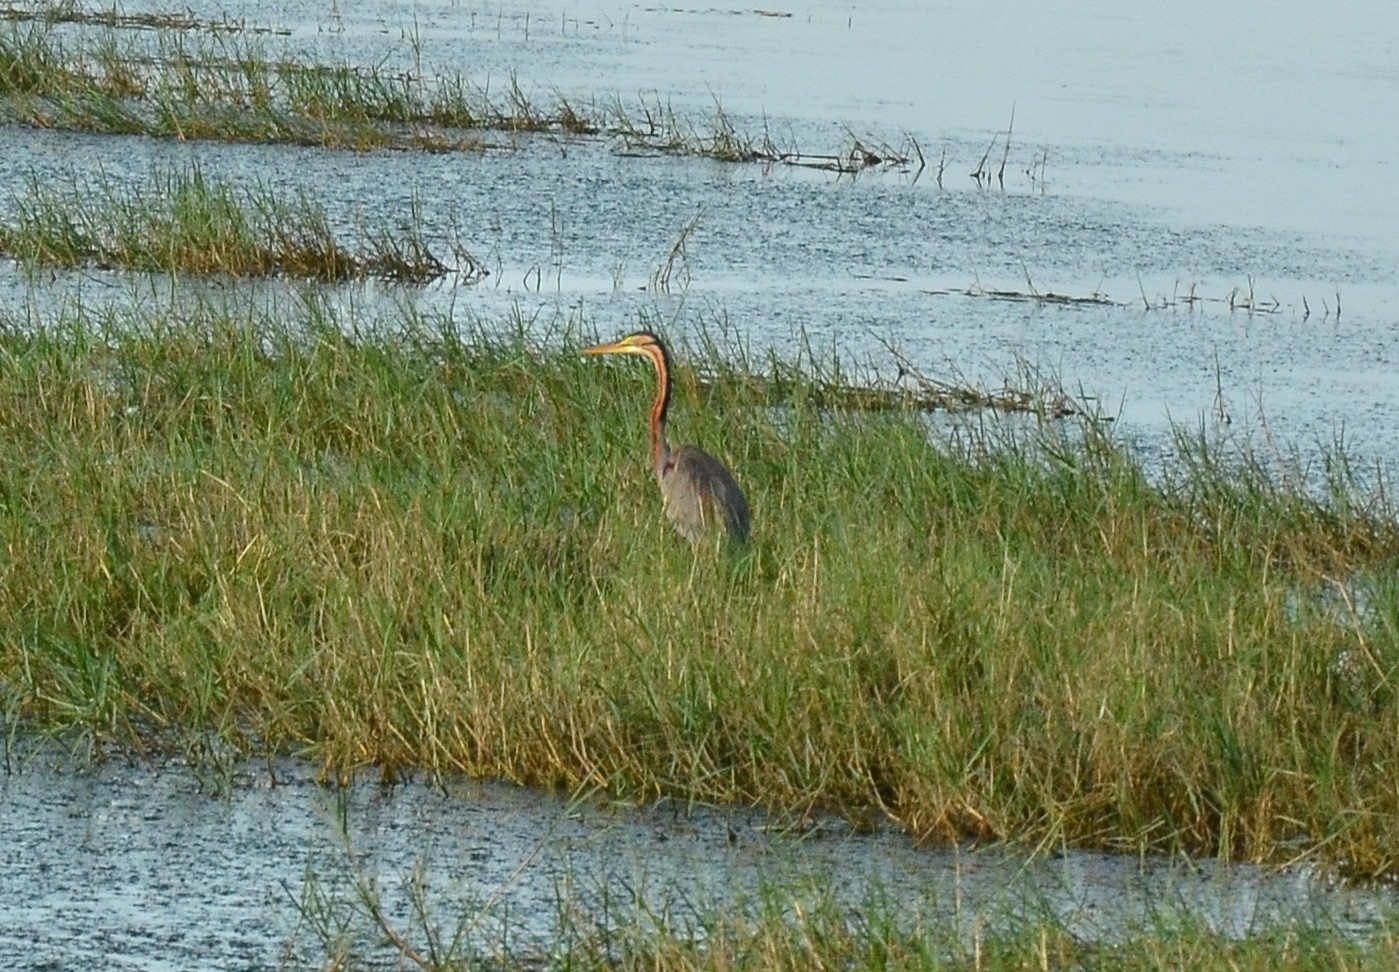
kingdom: Animalia
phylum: Chordata
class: Aves
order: Pelecaniformes
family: Ardeidae
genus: Ardea
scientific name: Ardea purpurea
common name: Purple heron
